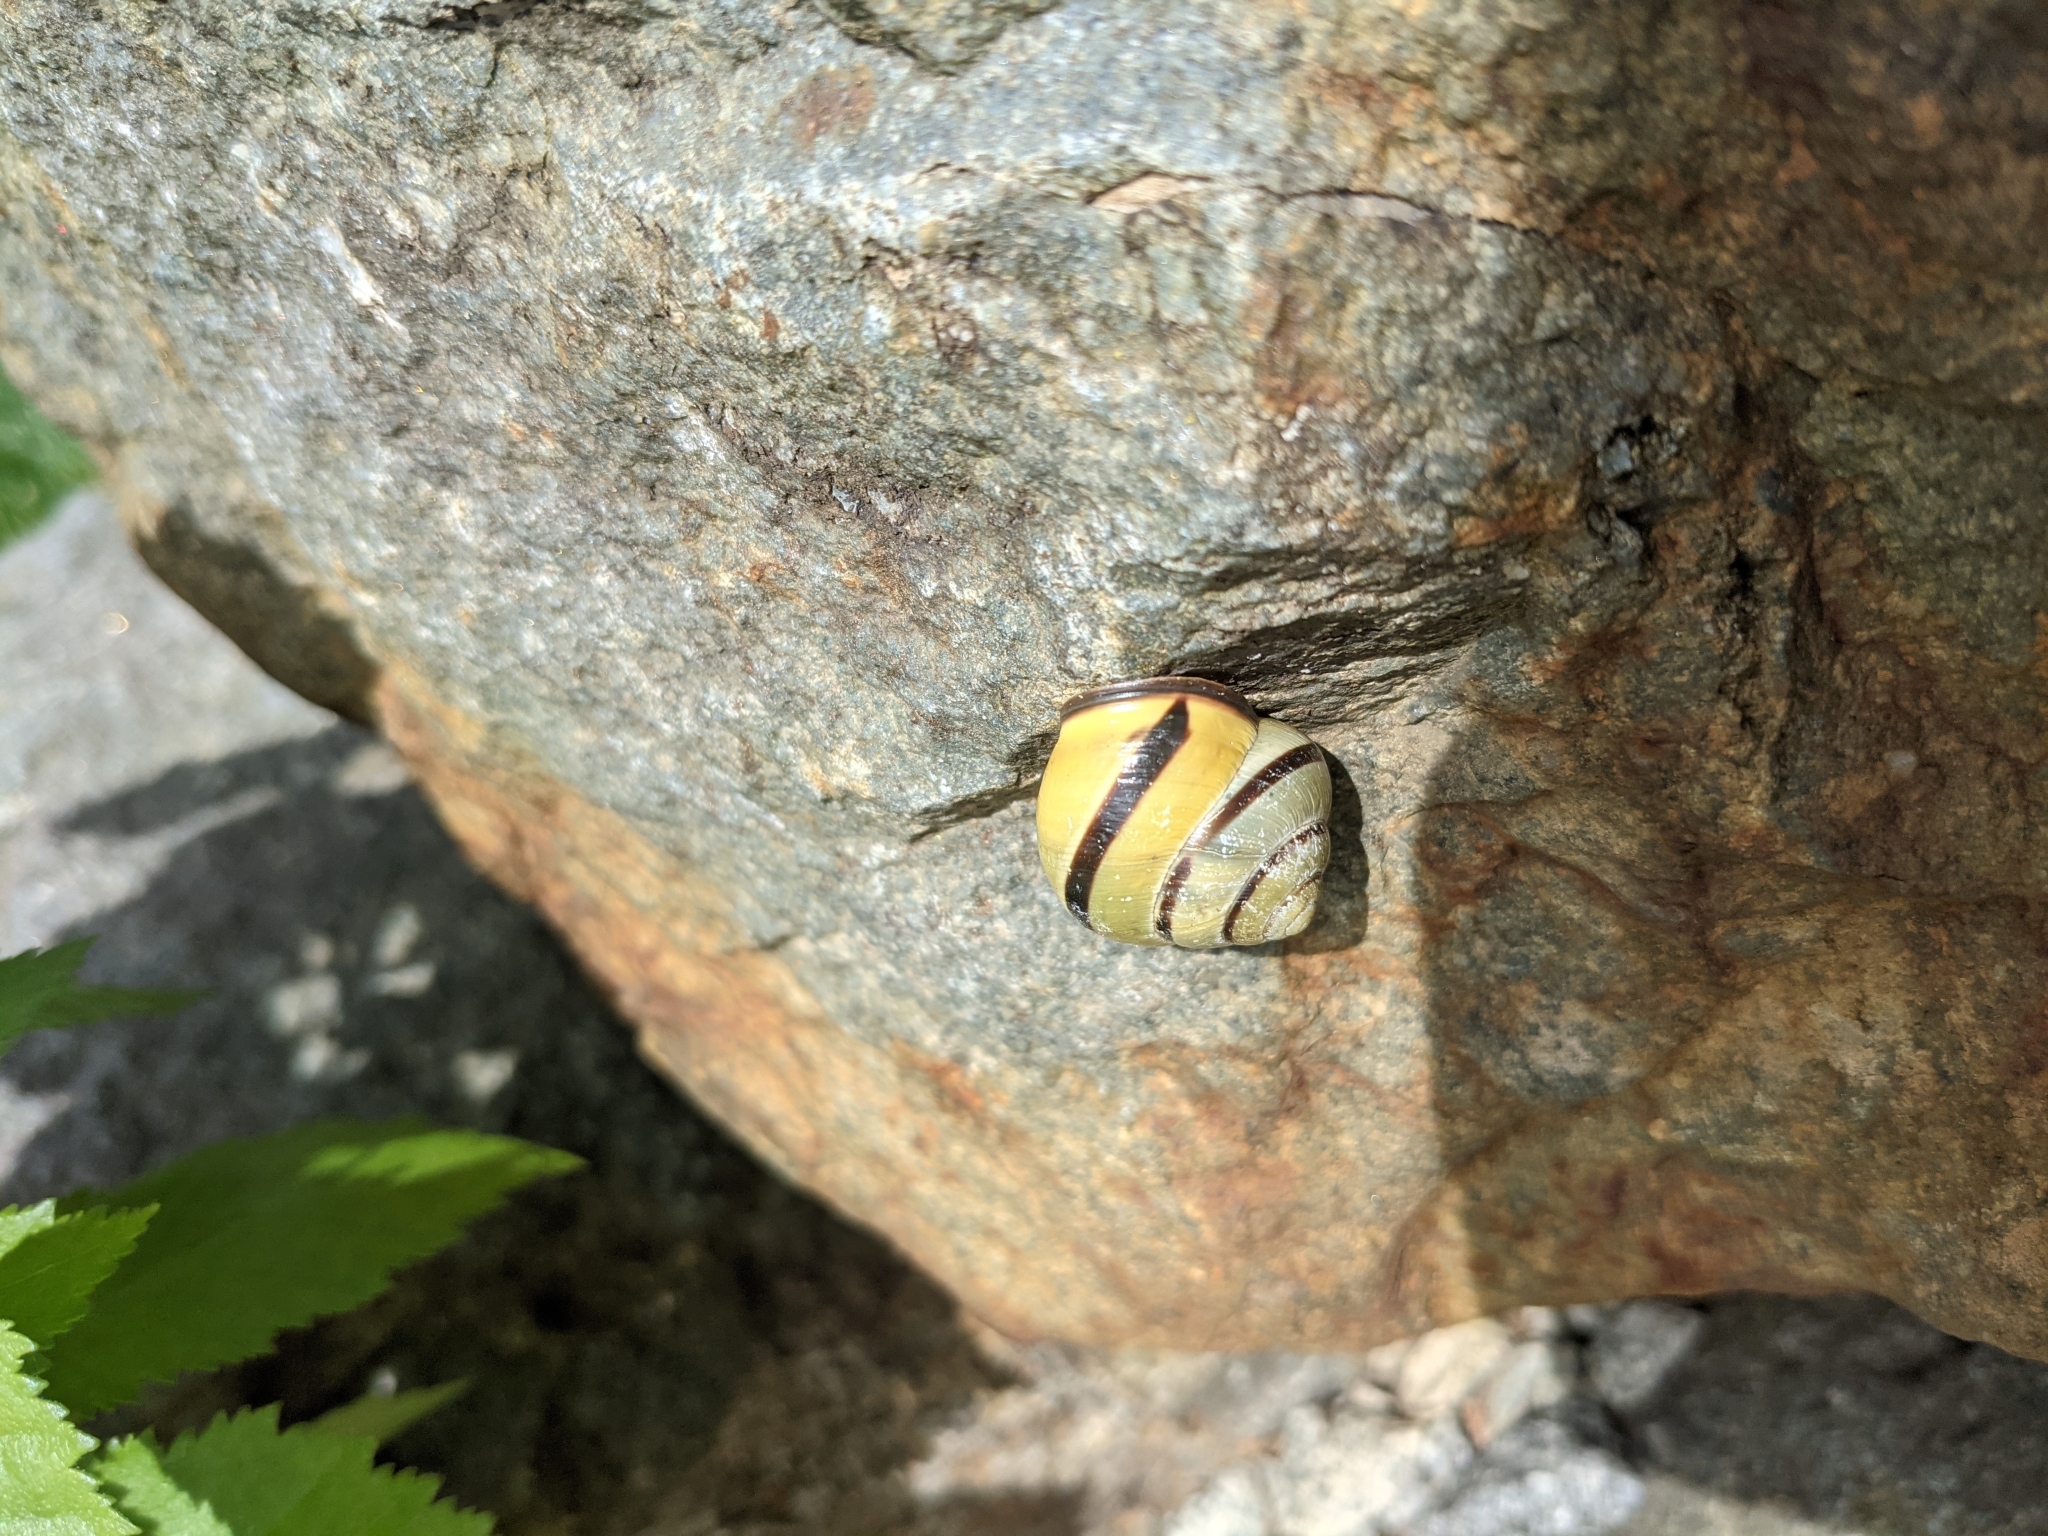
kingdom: Animalia
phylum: Mollusca
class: Gastropoda
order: Stylommatophora
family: Helicidae
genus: Cepaea
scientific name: Cepaea nemoralis
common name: Grovesnail
